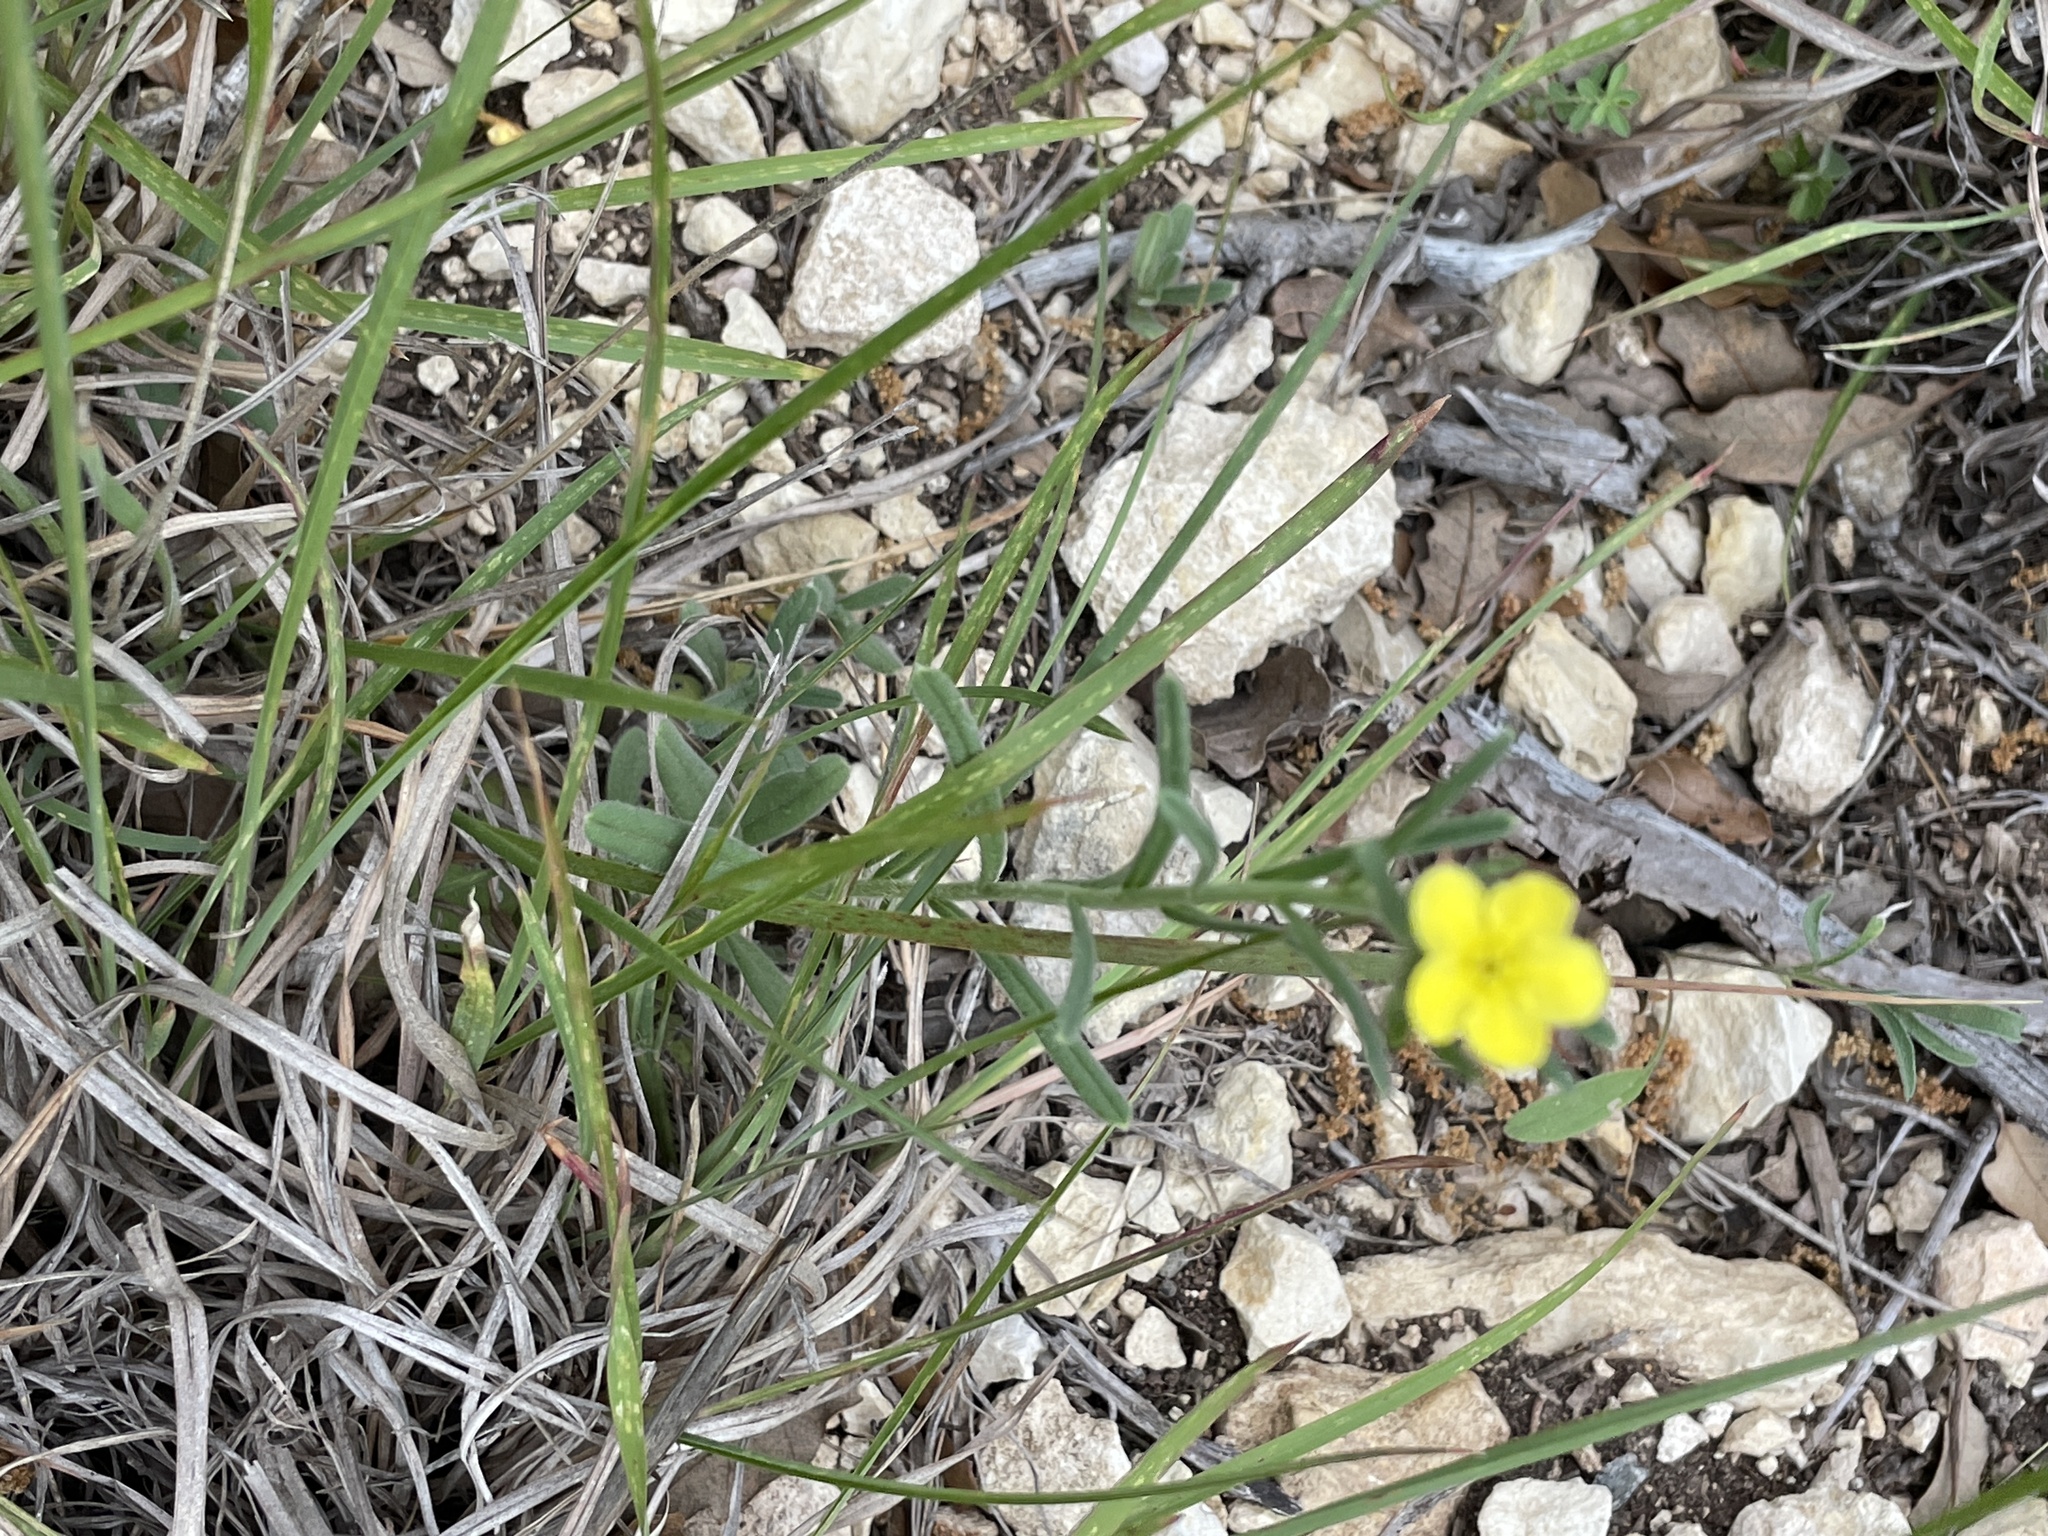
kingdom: Plantae
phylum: Tracheophyta
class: Magnoliopsida
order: Boraginales
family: Boraginaceae
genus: Lithospermum
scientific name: Lithospermum mirabile
